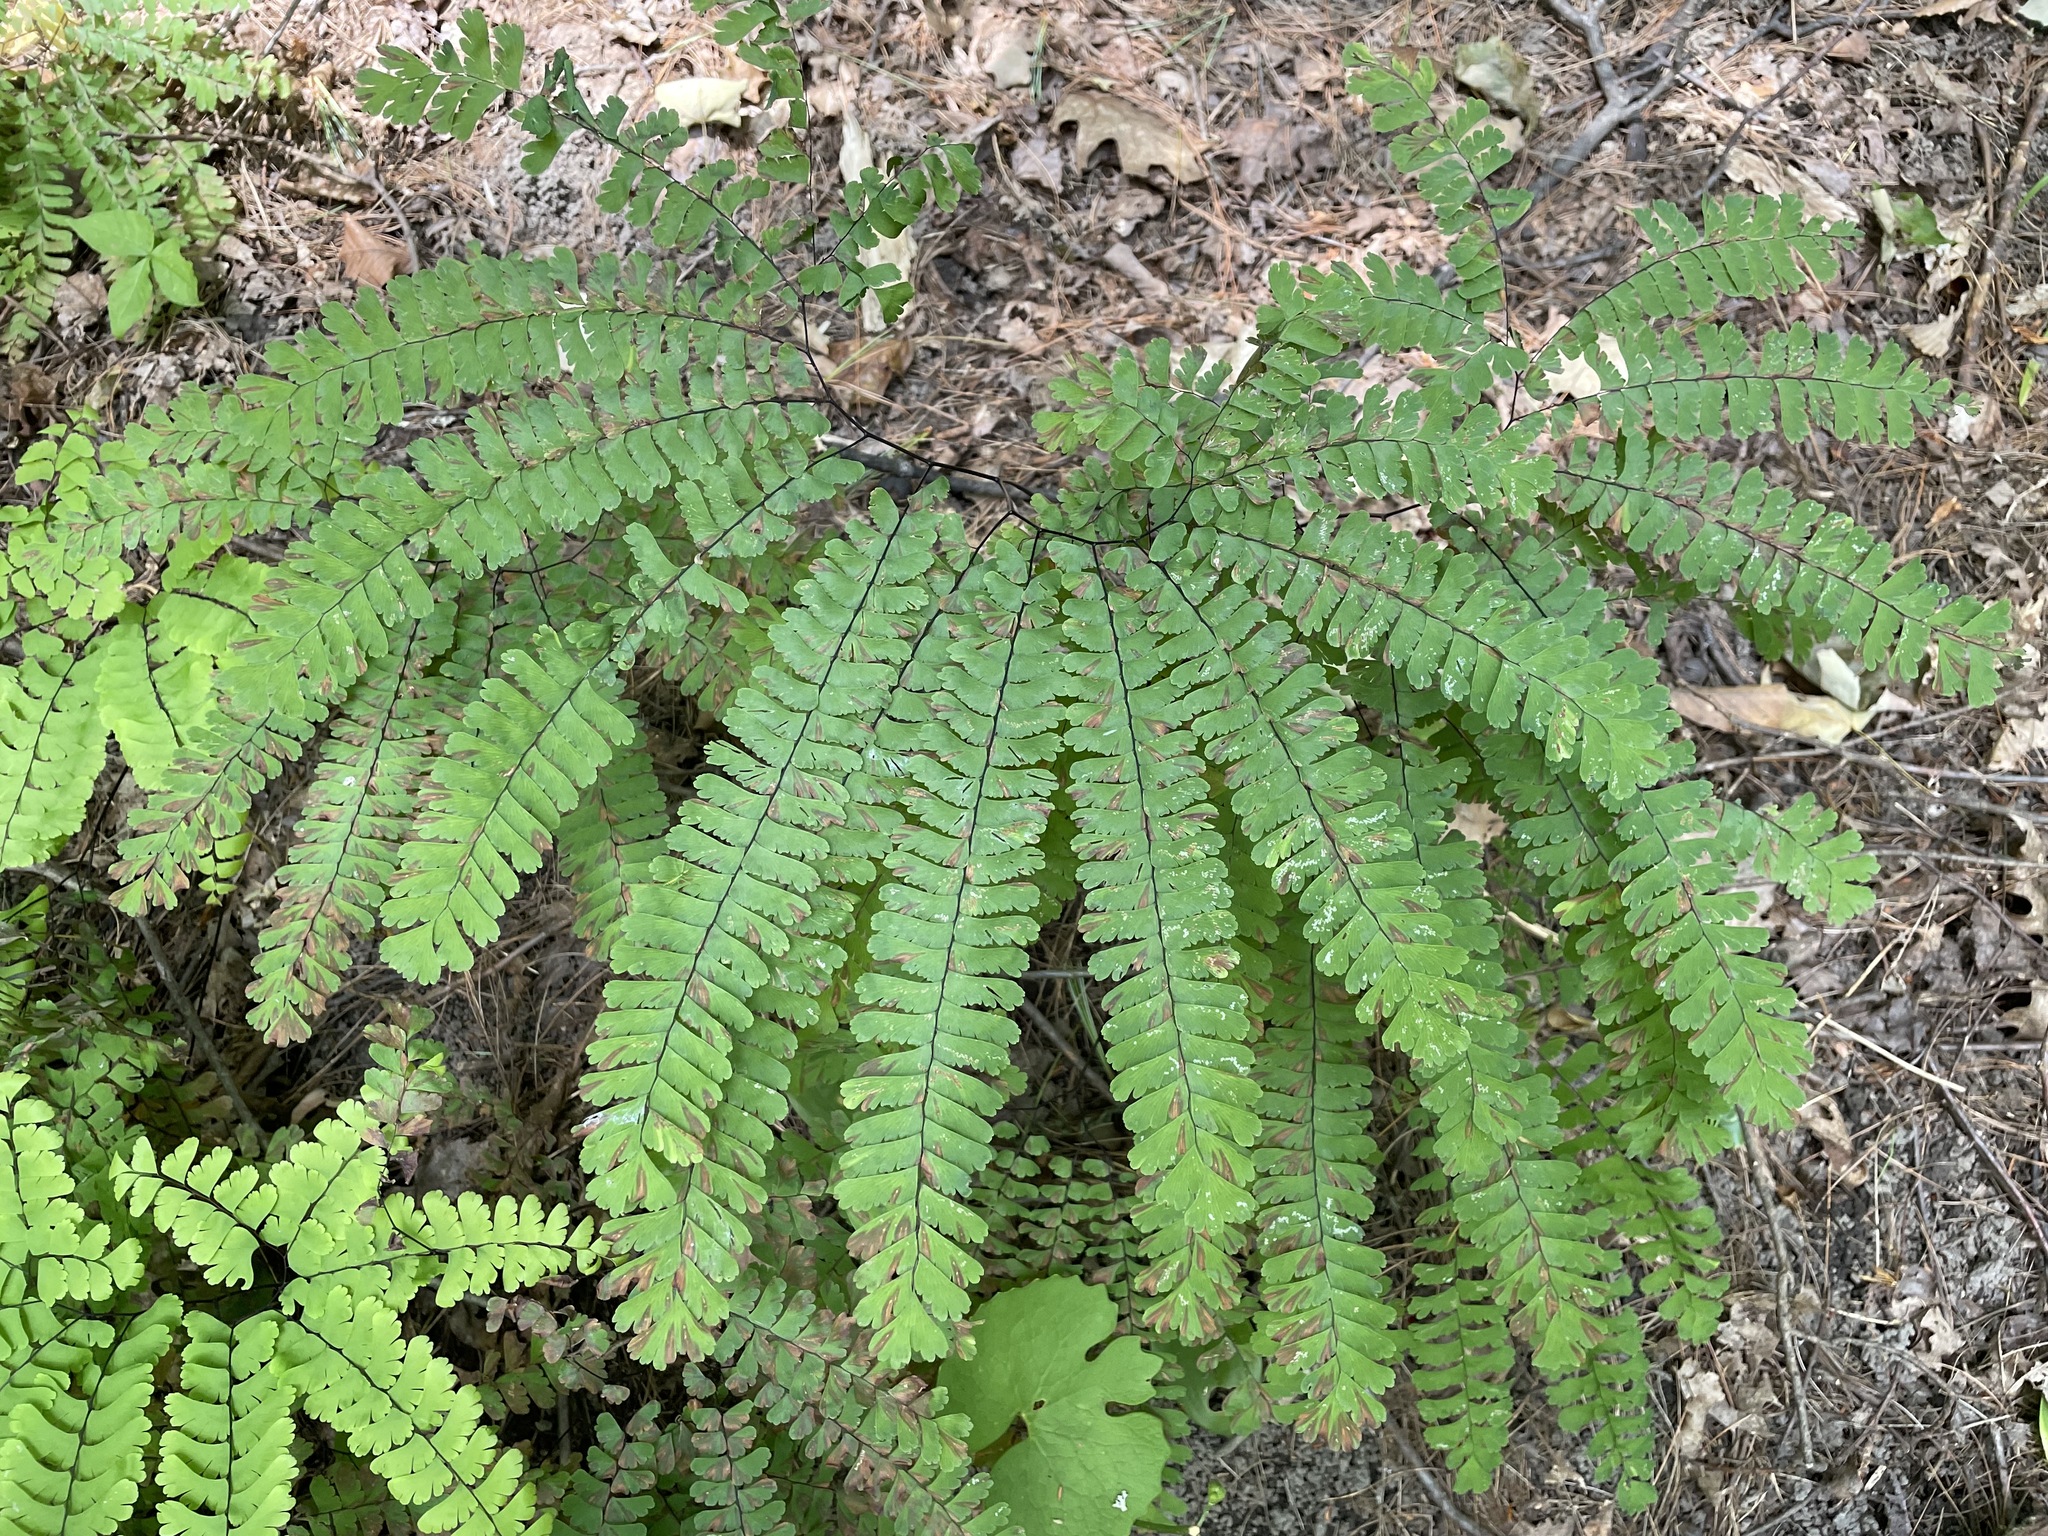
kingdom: Plantae
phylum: Tracheophyta
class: Polypodiopsida
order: Polypodiales
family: Pteridaceae
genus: Adiantum
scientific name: Adiantum pedatum
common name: Five-finger fern
